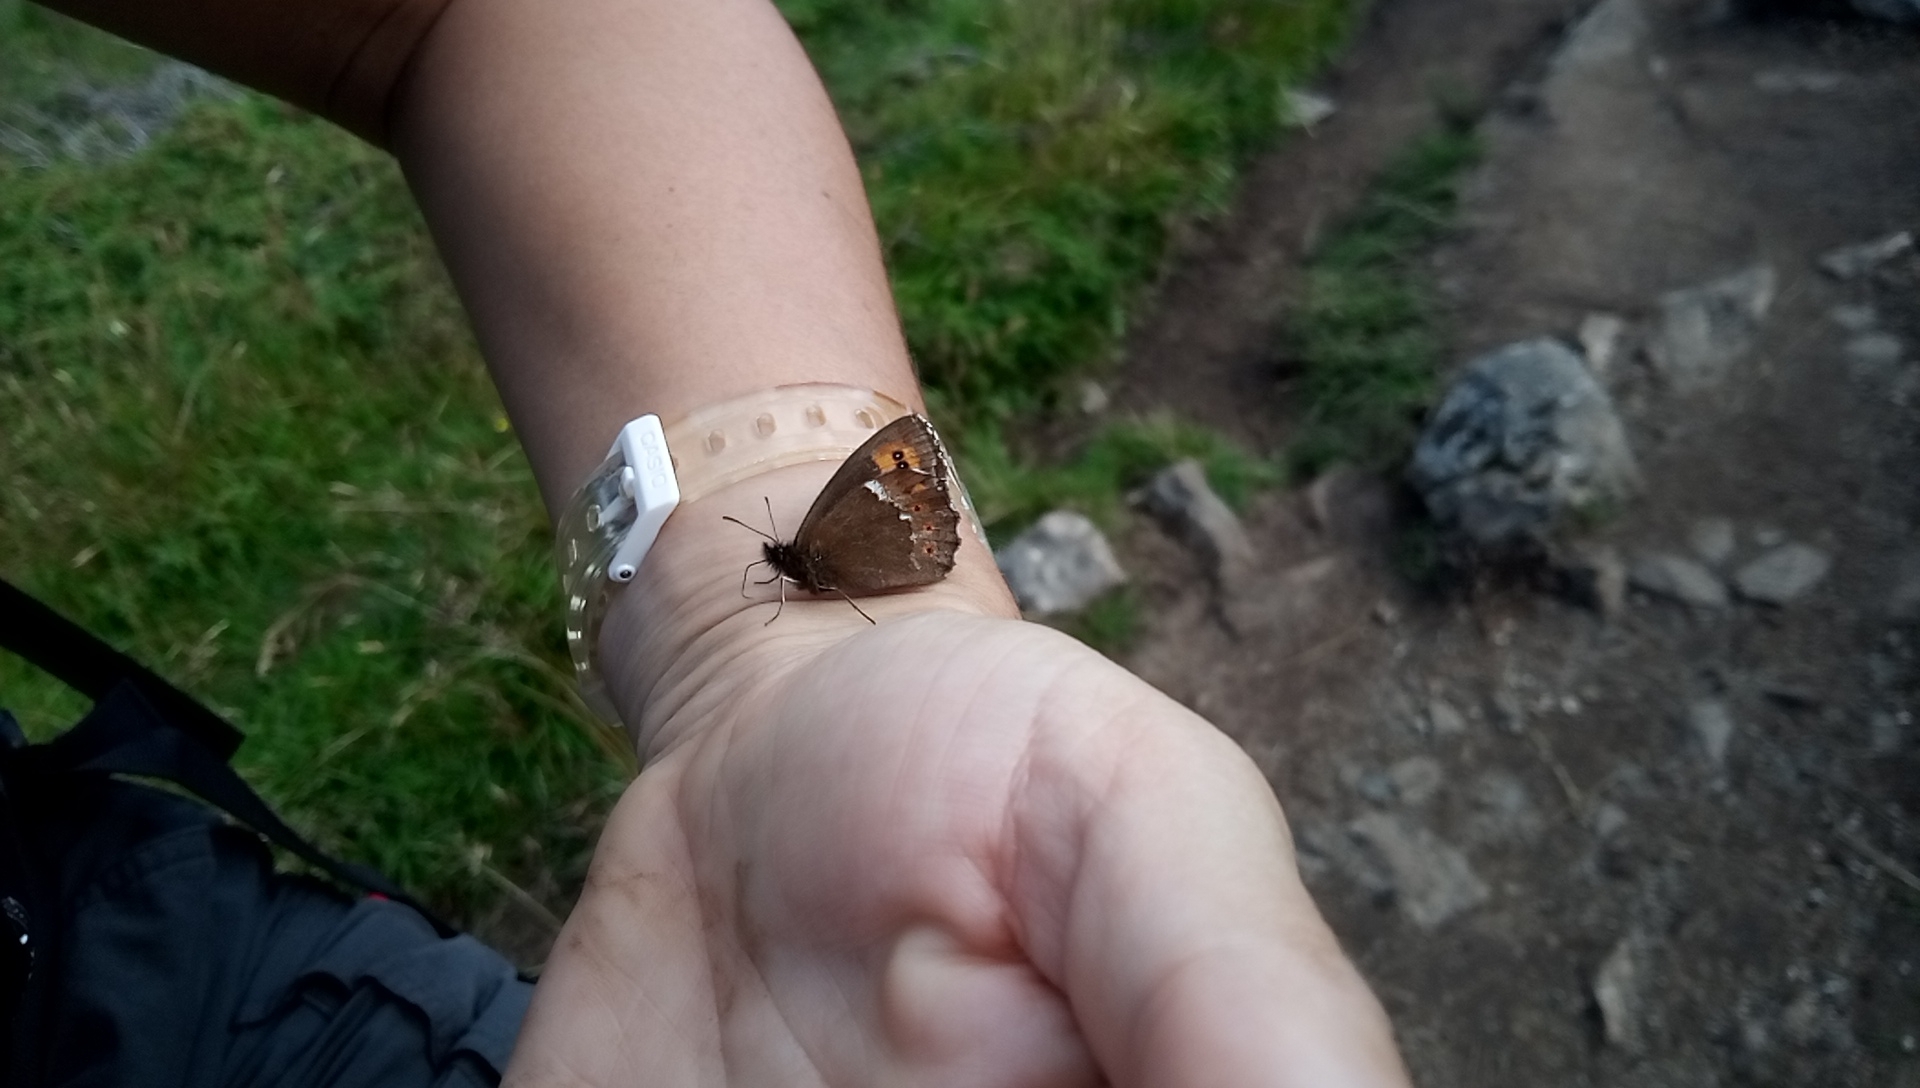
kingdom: Animalia
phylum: Arthropoda
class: Insecta
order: Lepidoptera
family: Nymphalidae
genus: Erebia
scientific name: Erebia ligea
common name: Arran brown
